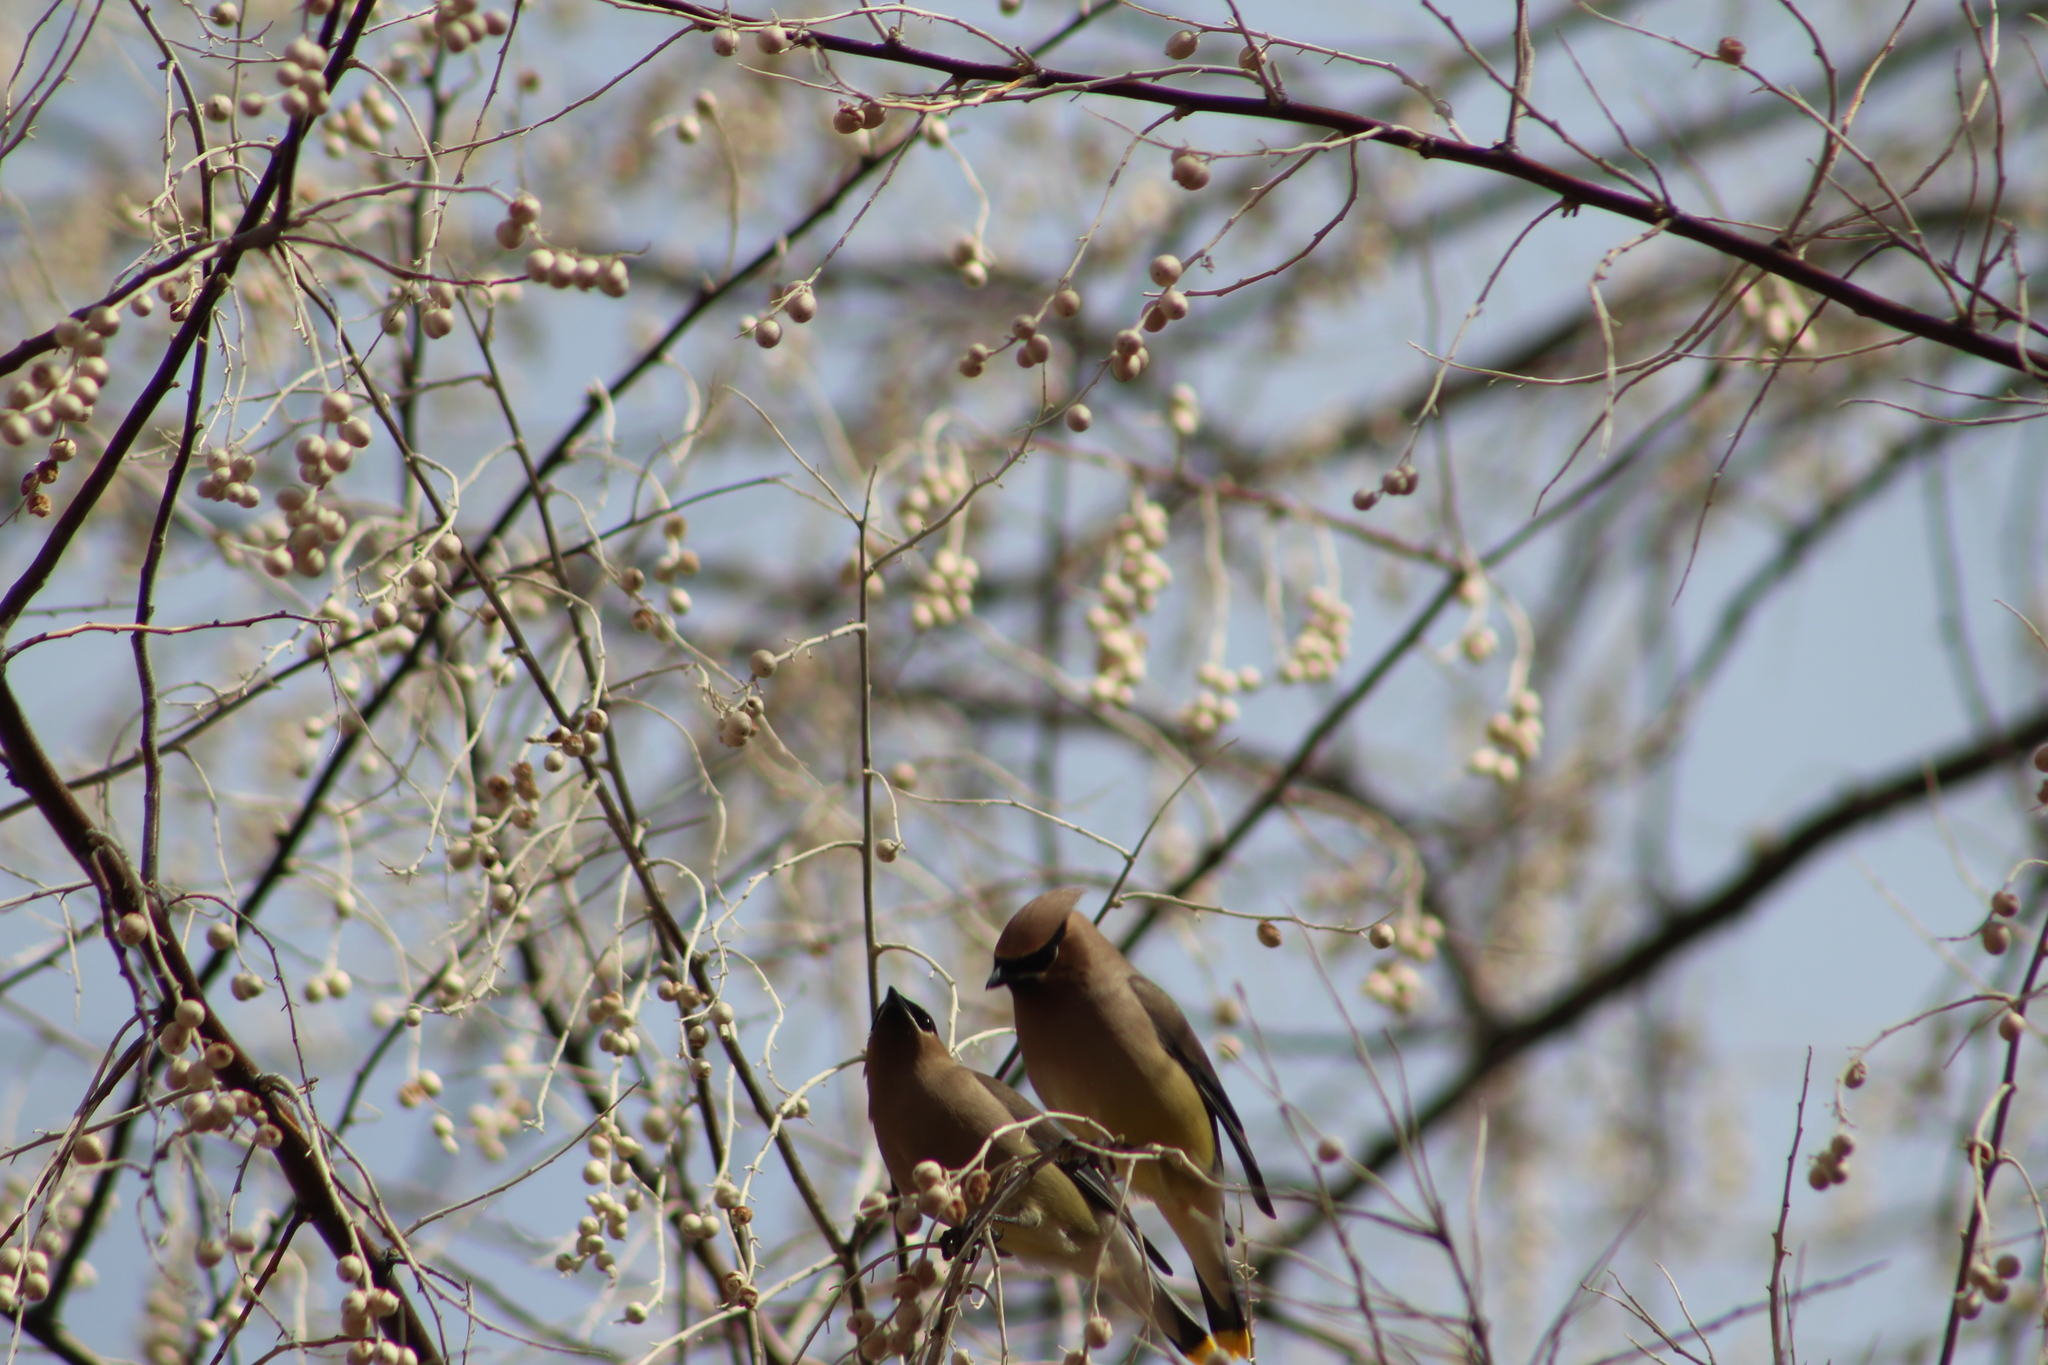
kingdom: Animalia
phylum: Chordata
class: Aves
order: Passeriformes
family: Bombycillidae
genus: Bombycilla
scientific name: Bombycilla cedrorum
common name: Cedar waxwing
